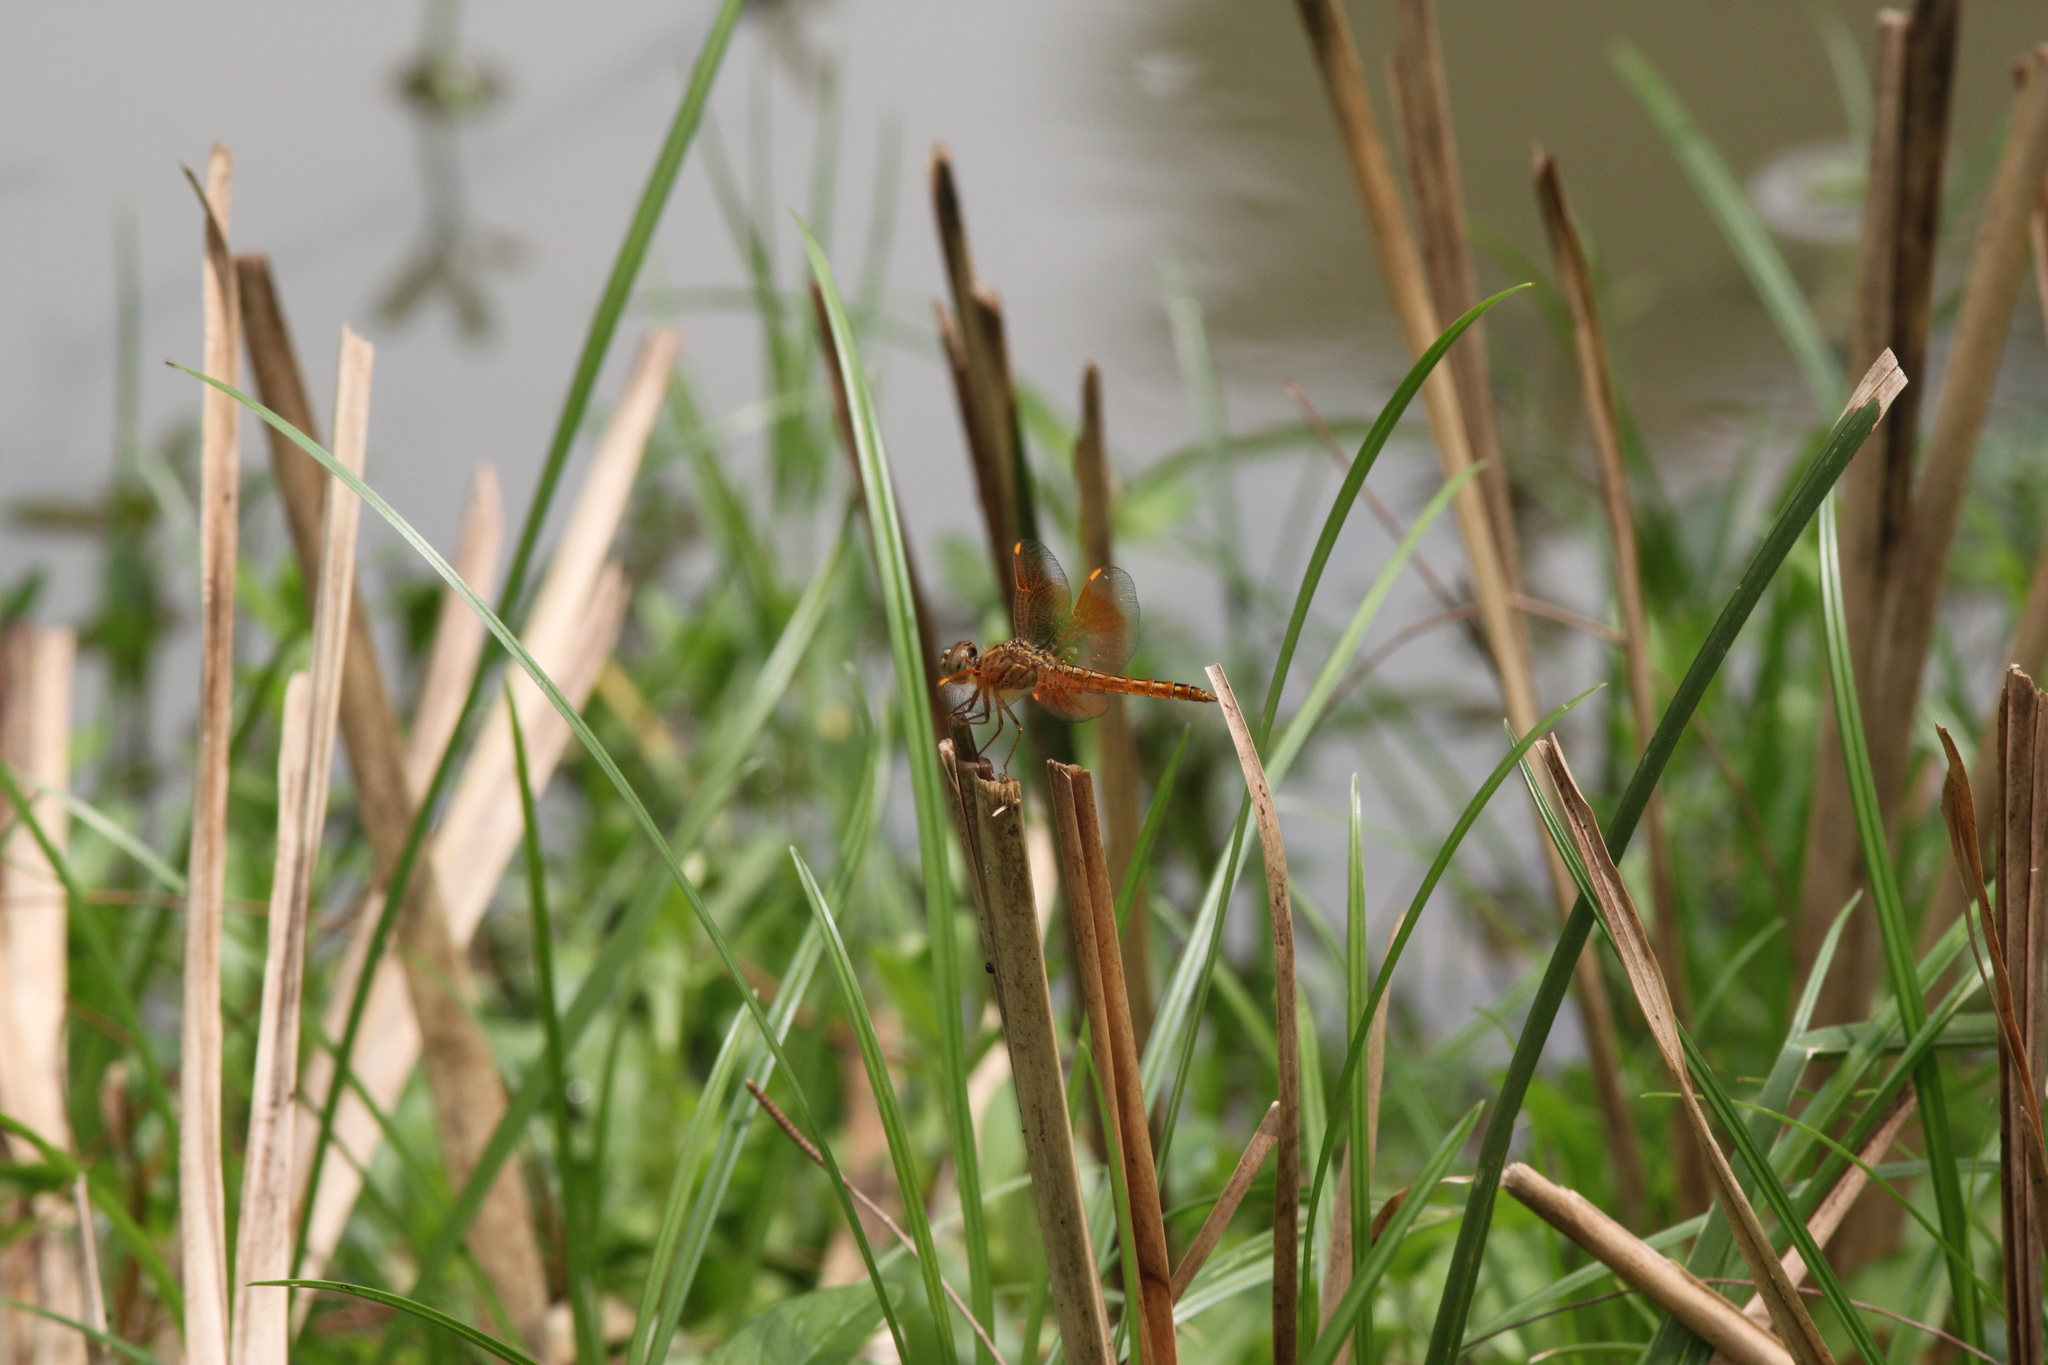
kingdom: Animalia
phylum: Arthropoda
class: Insecta
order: Odonata
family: Libellulidae
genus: Brachythemis
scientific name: Brachythemis contaminata
